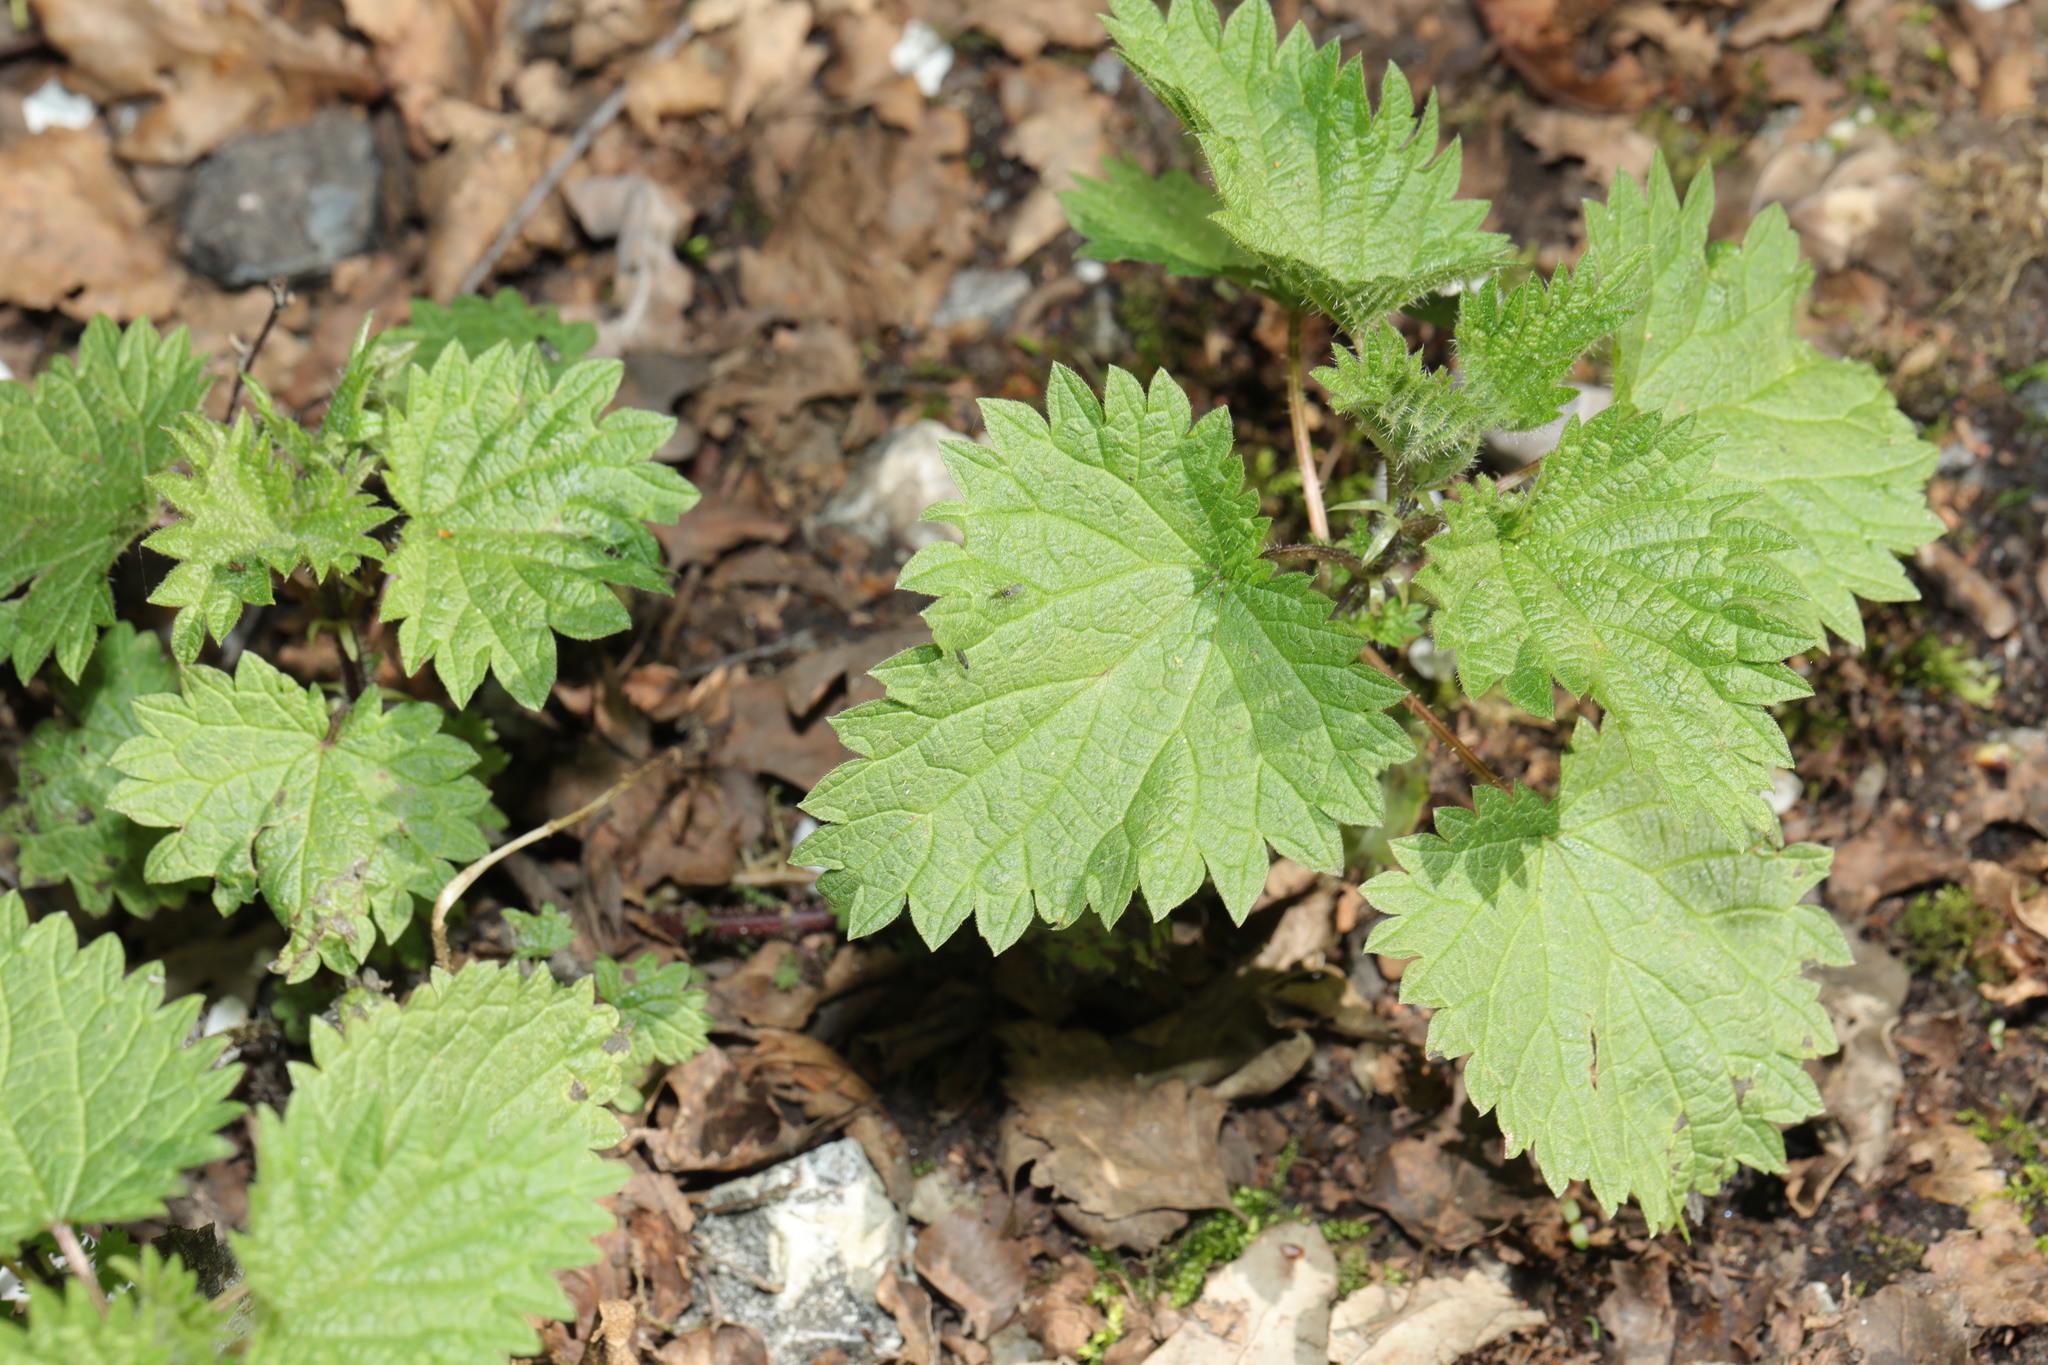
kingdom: Plantae
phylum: Tracheophyta
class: Magnoliopsida
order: Rosales
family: Urticaceae
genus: Urtica
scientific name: Urtica dioica
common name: Common nettle
